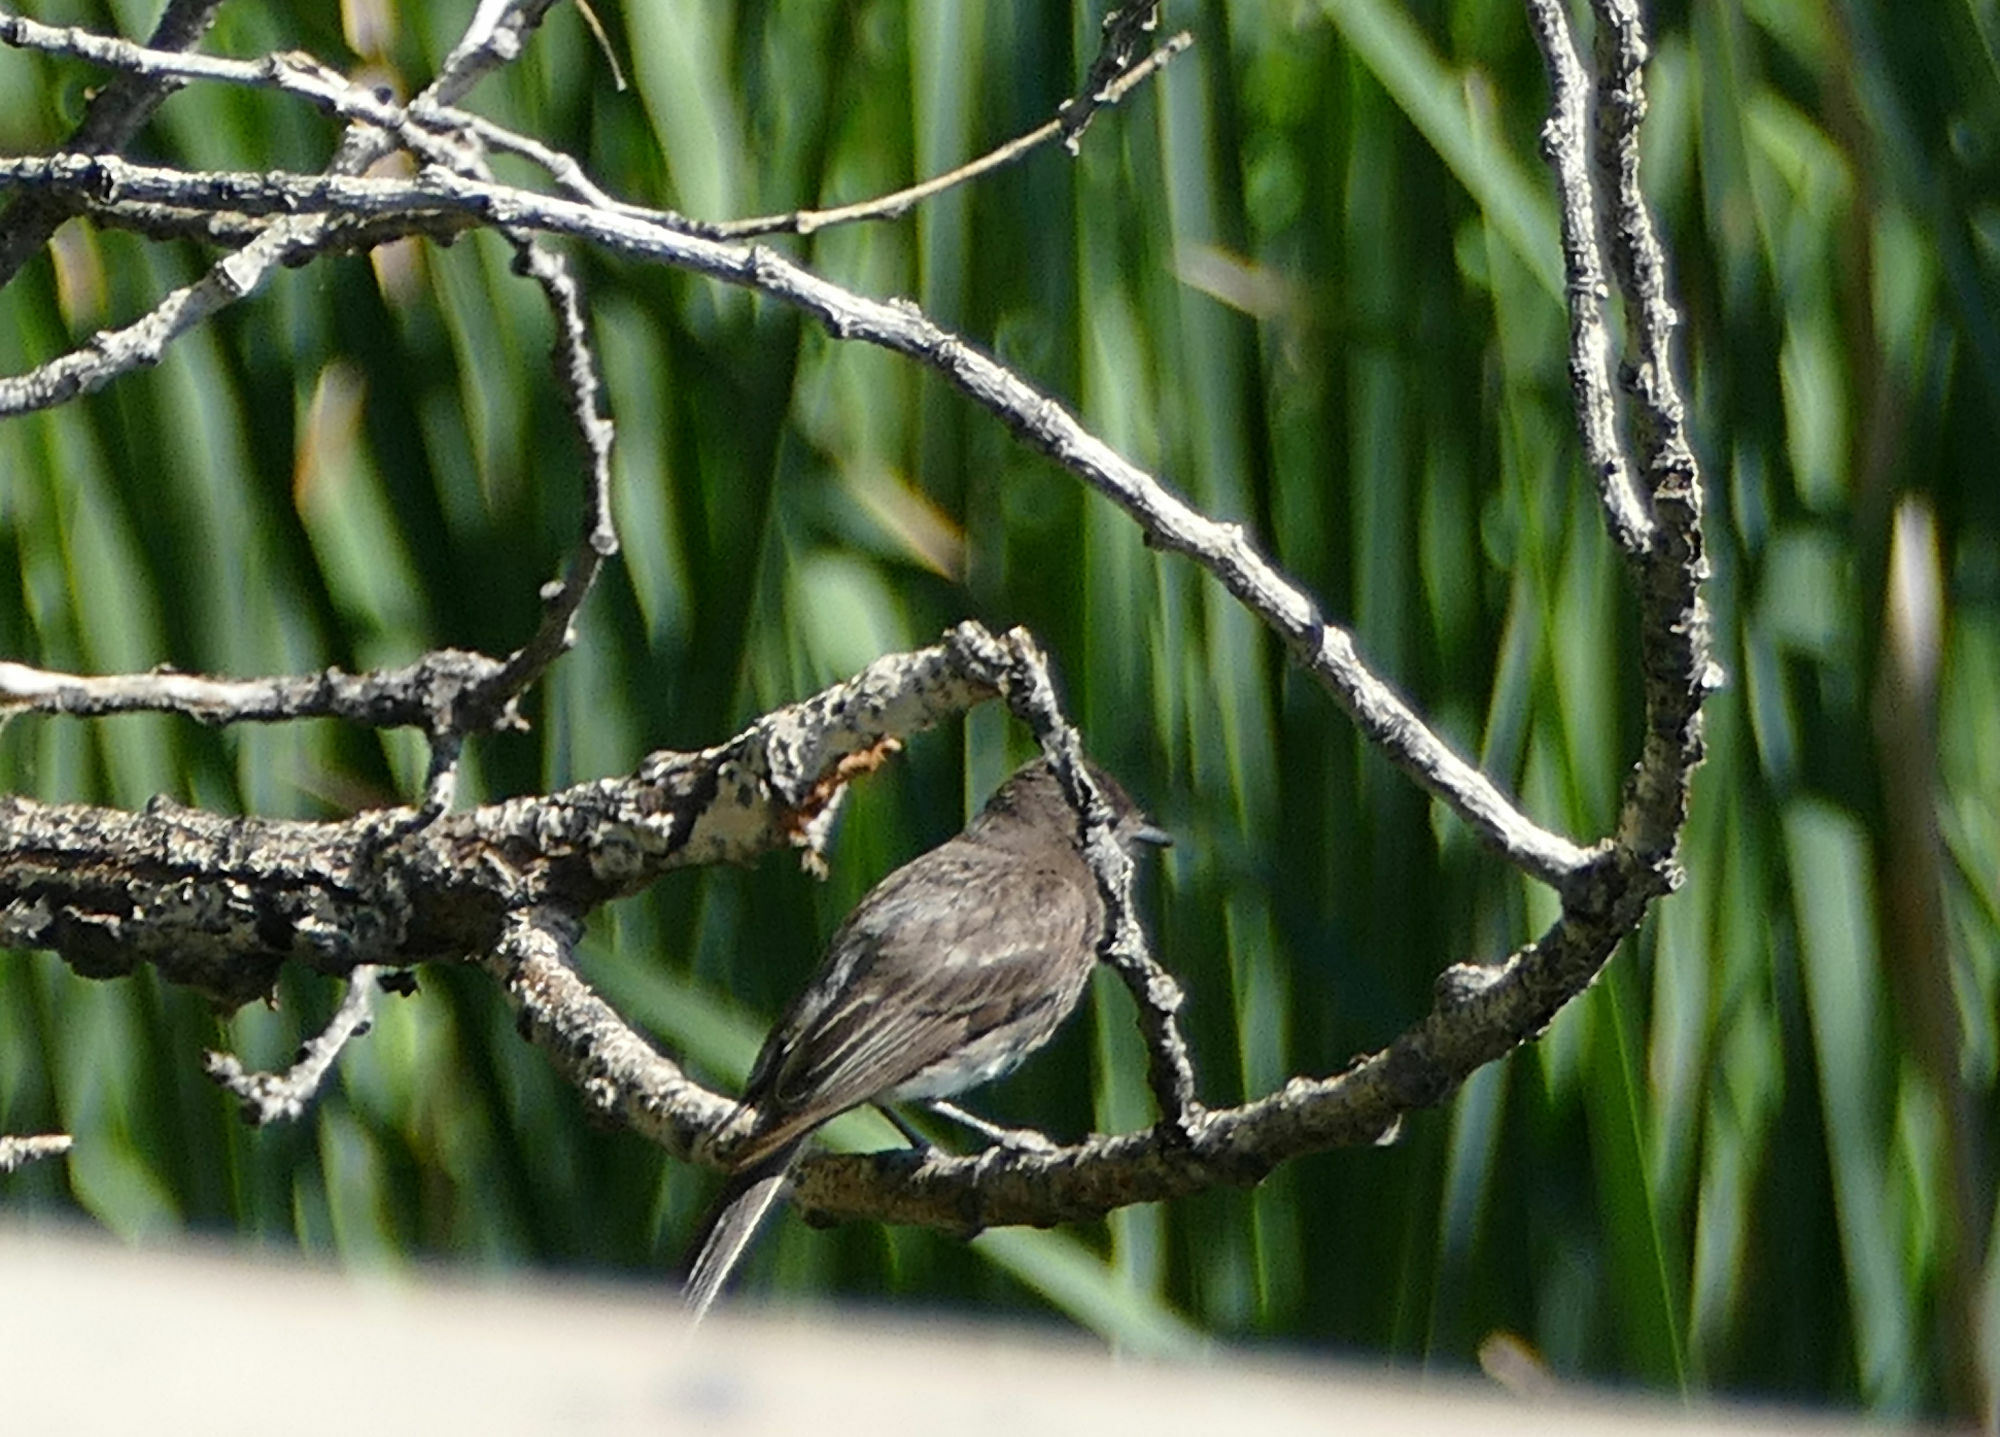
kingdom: Animalia
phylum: Chordata
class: Aves
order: Passeriformes
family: Tyrannidae
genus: Sayornis
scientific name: Sayornis nigricans
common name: Black phoebe
